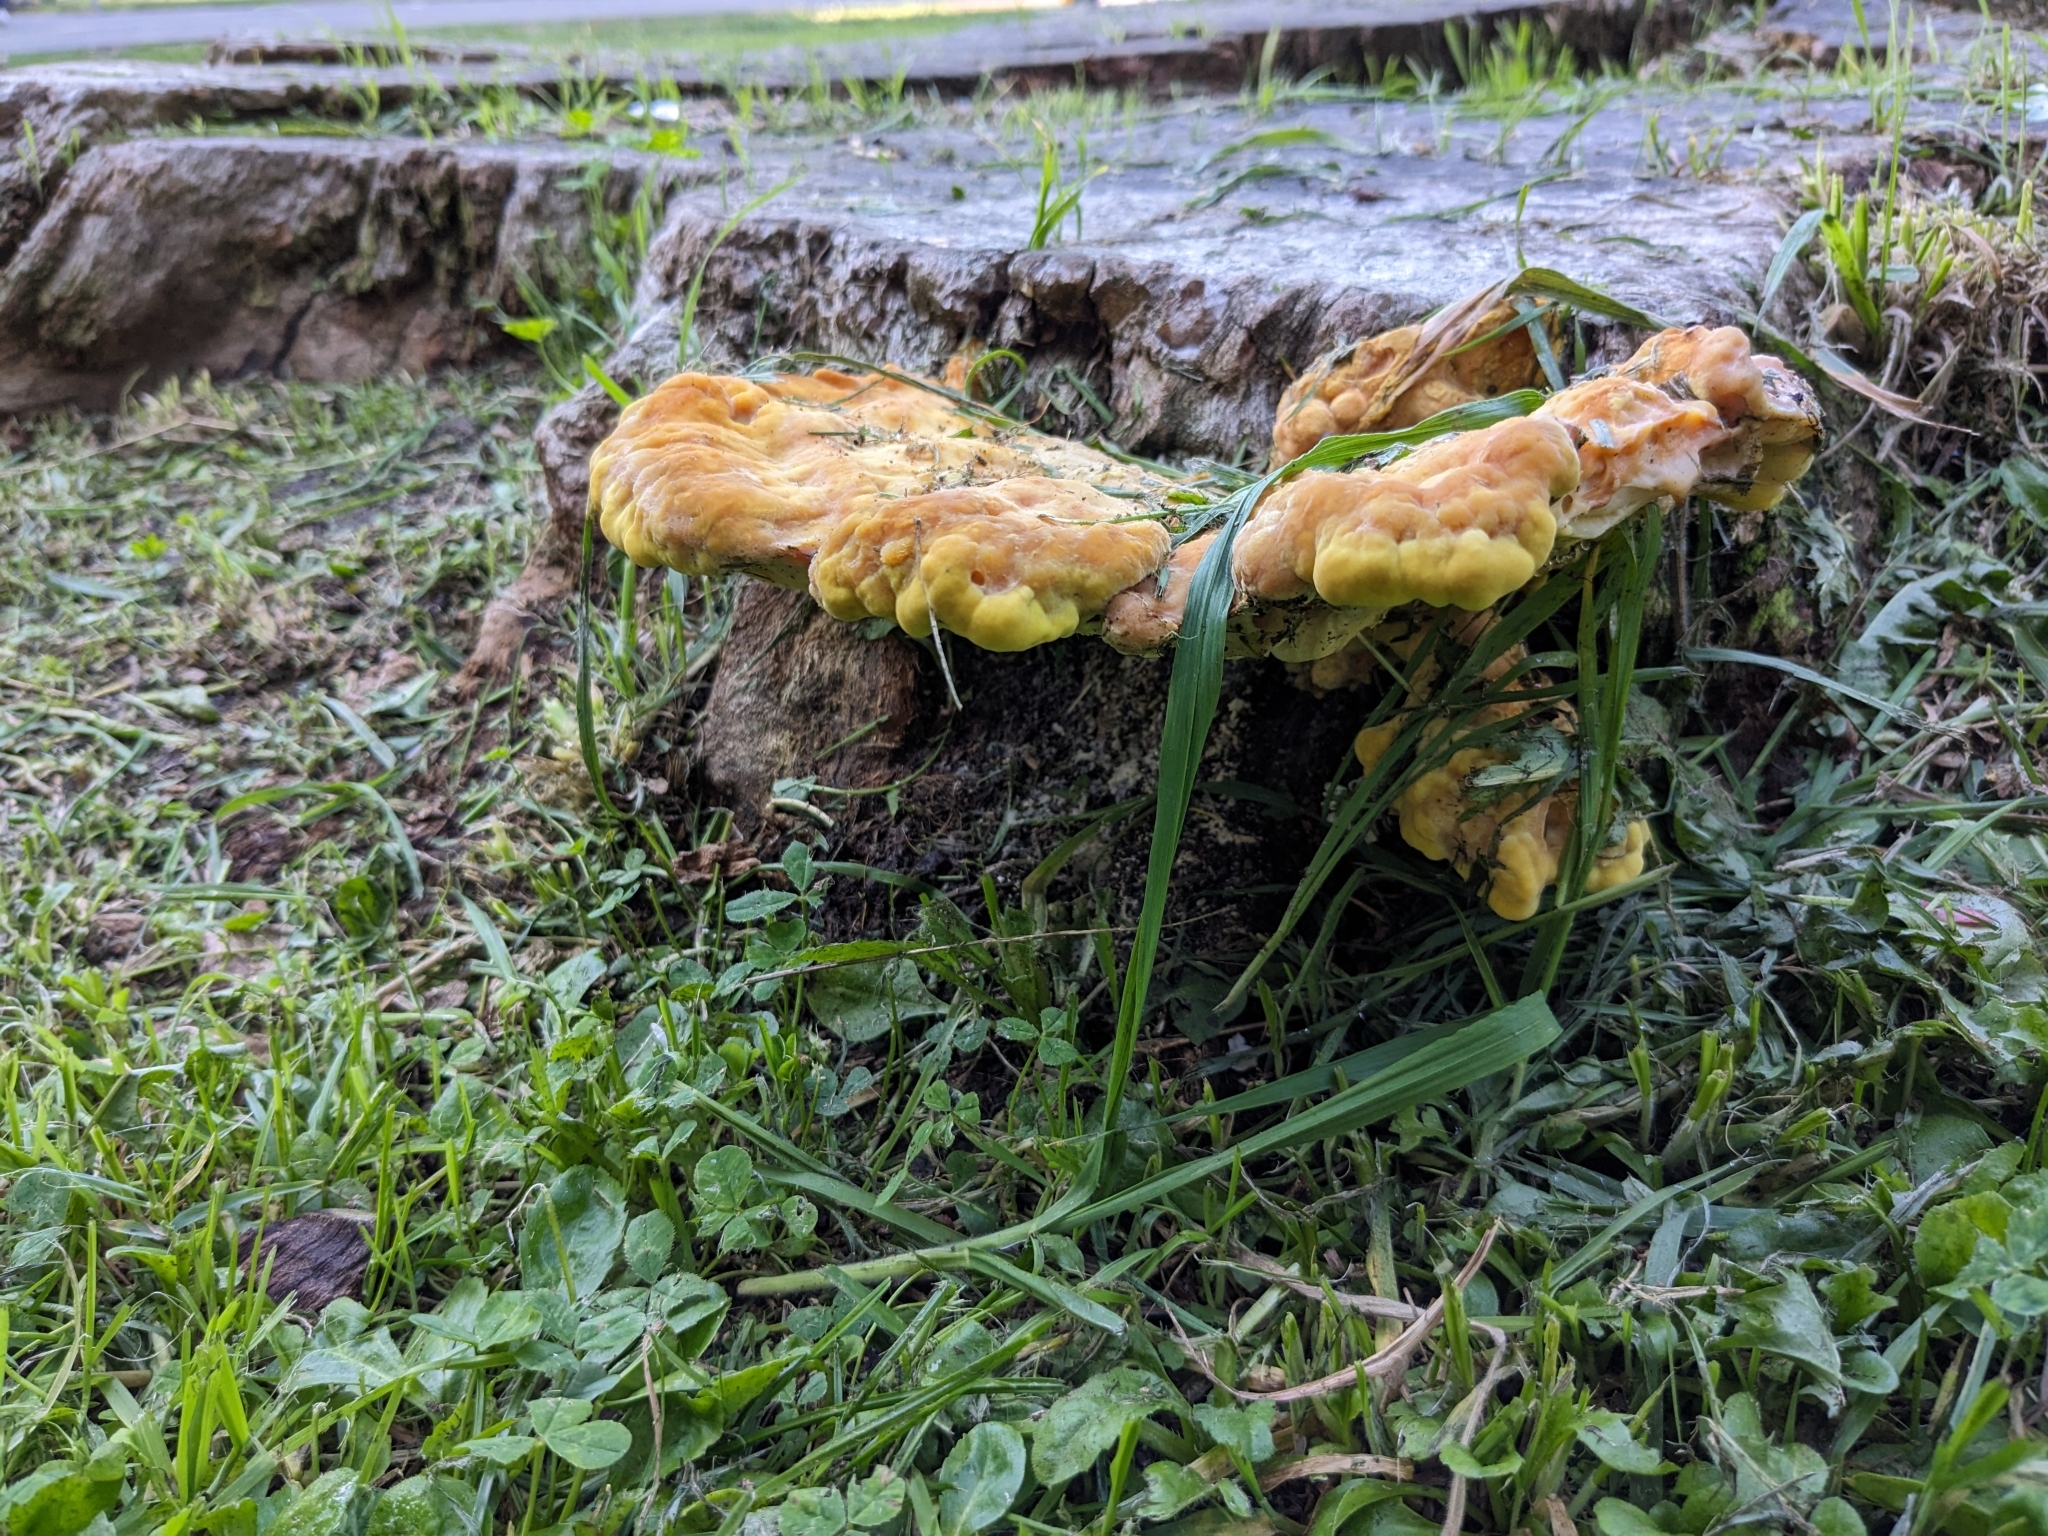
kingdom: Fungi
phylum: Basidiomycota
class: Agaricomycetes
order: Polyporales
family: Laetiporaceae
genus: Laetiporus
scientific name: Laetiporus gilbertsonii
